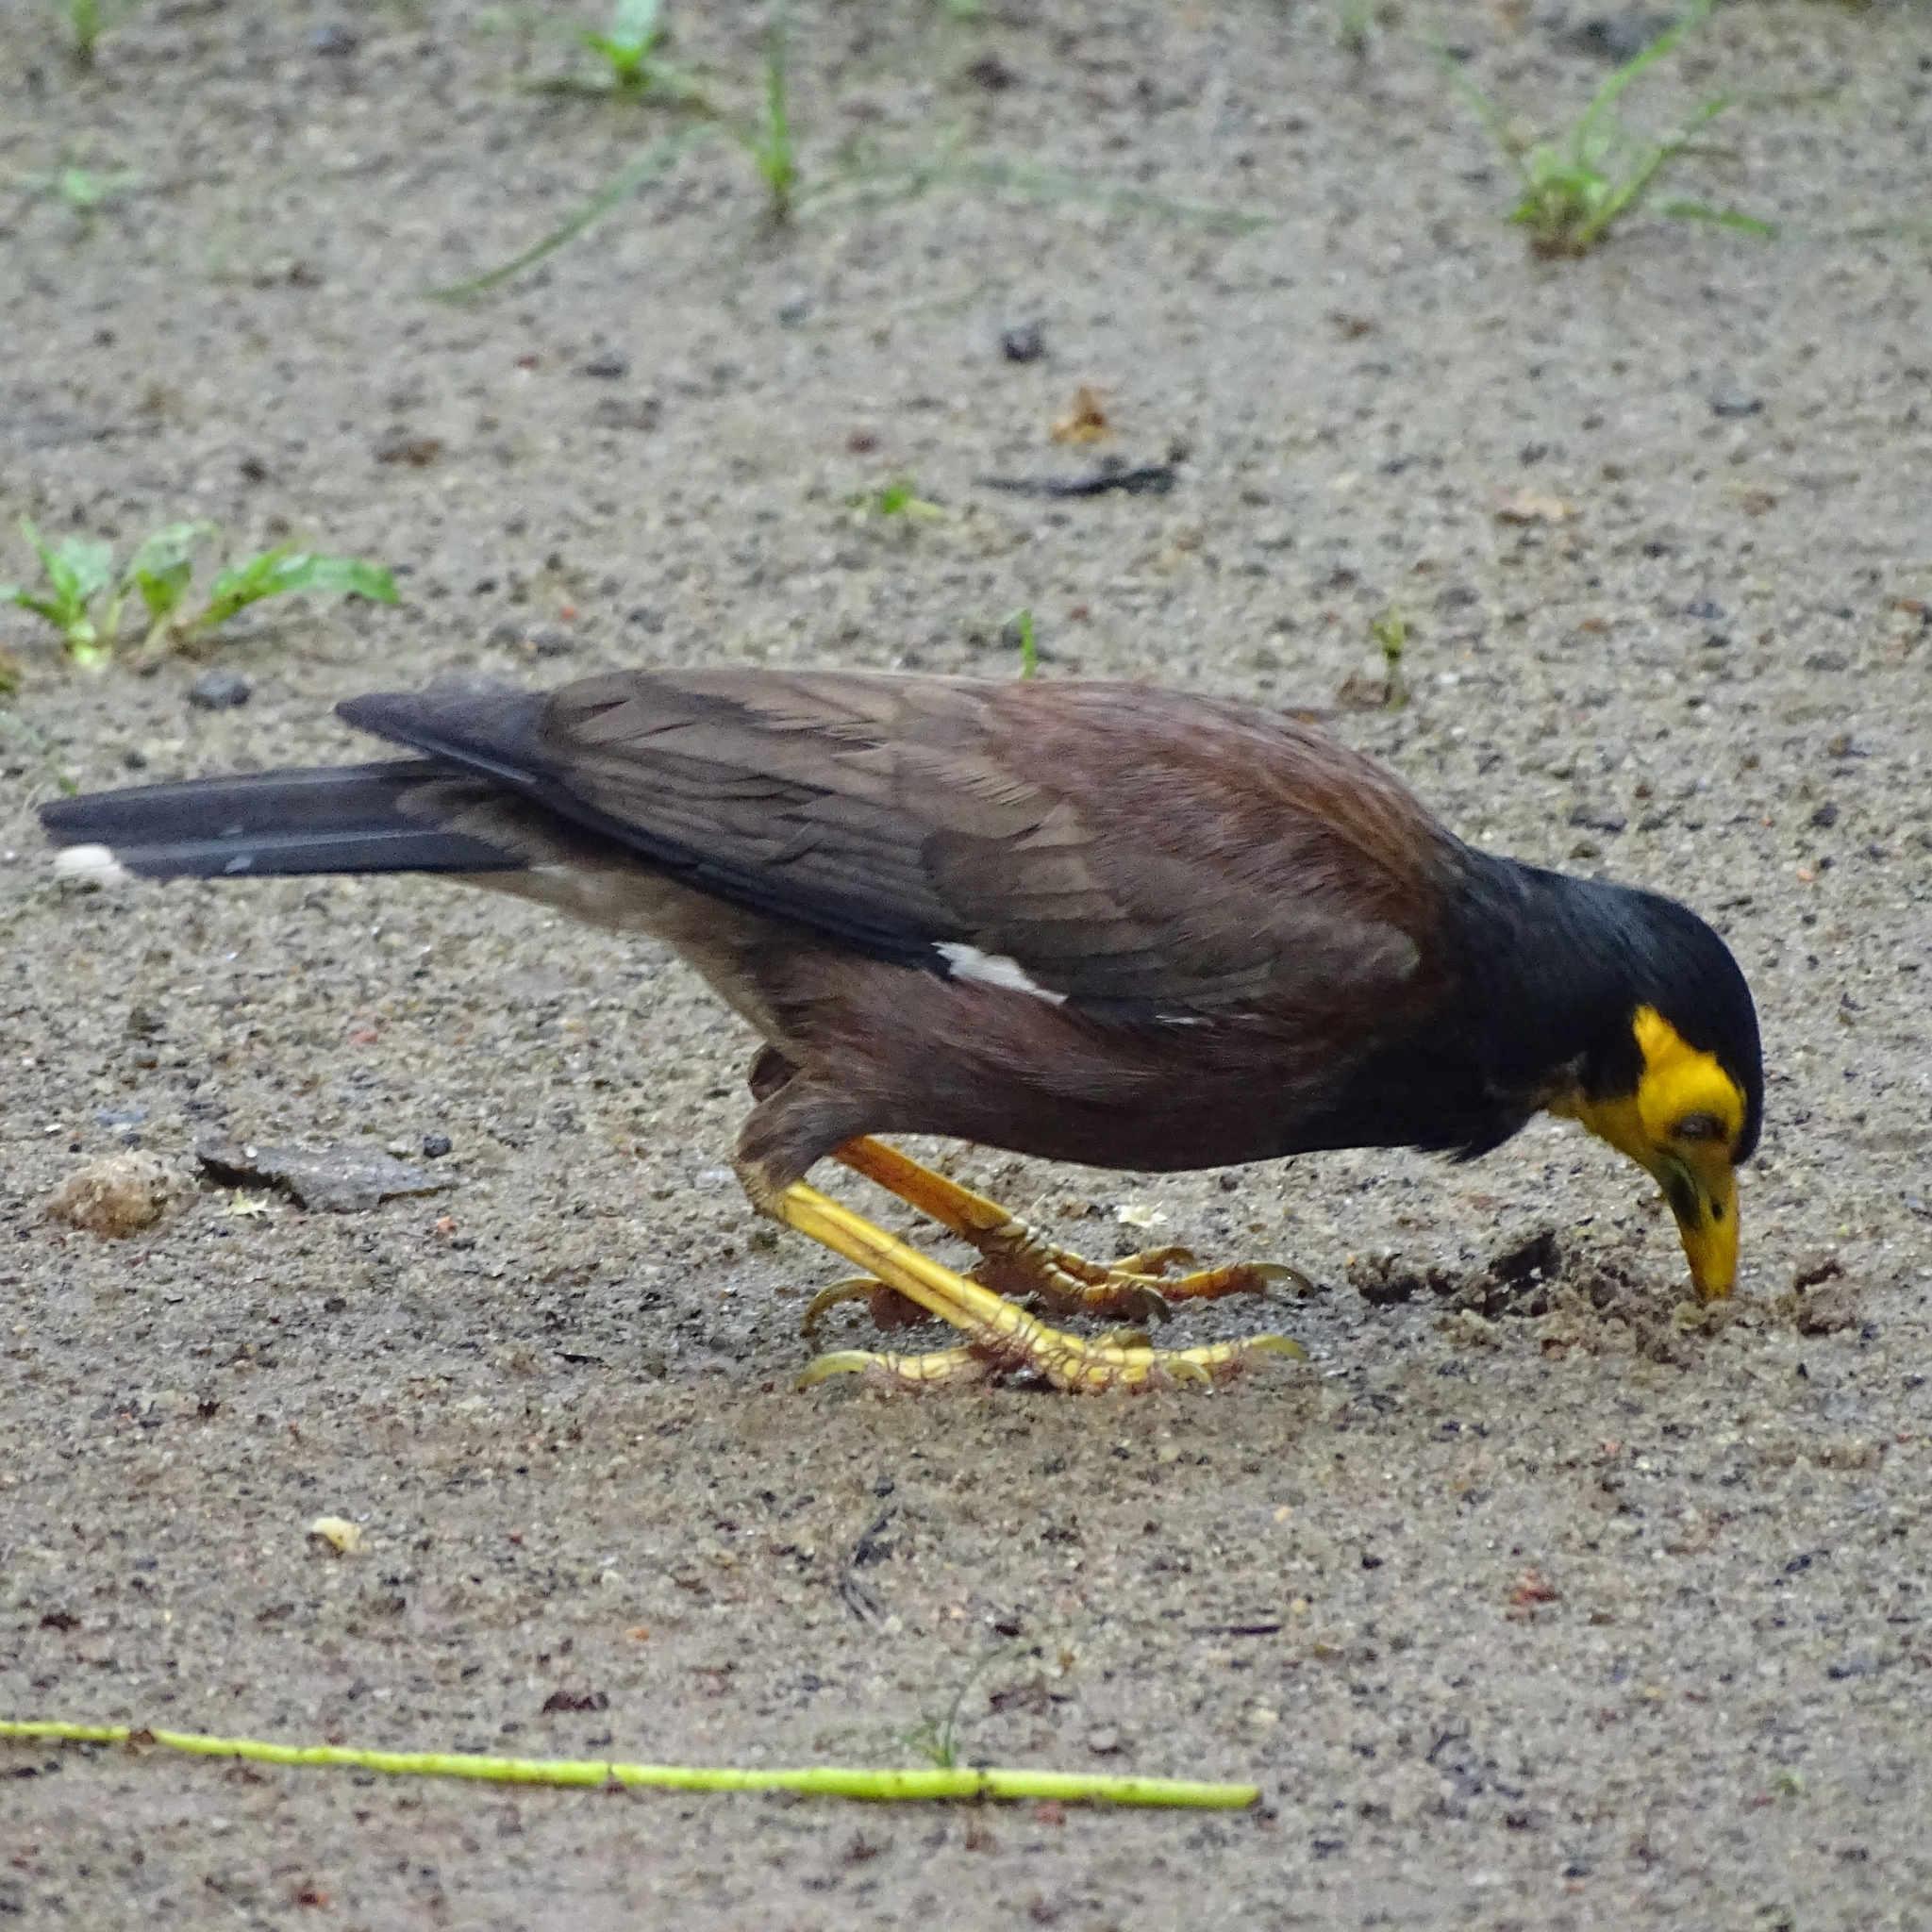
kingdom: Animalia
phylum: Chordata
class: Aves
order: Passeriformes
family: Sturnidae
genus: Acridotheres
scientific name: Acridotheres tristis
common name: Common myna
